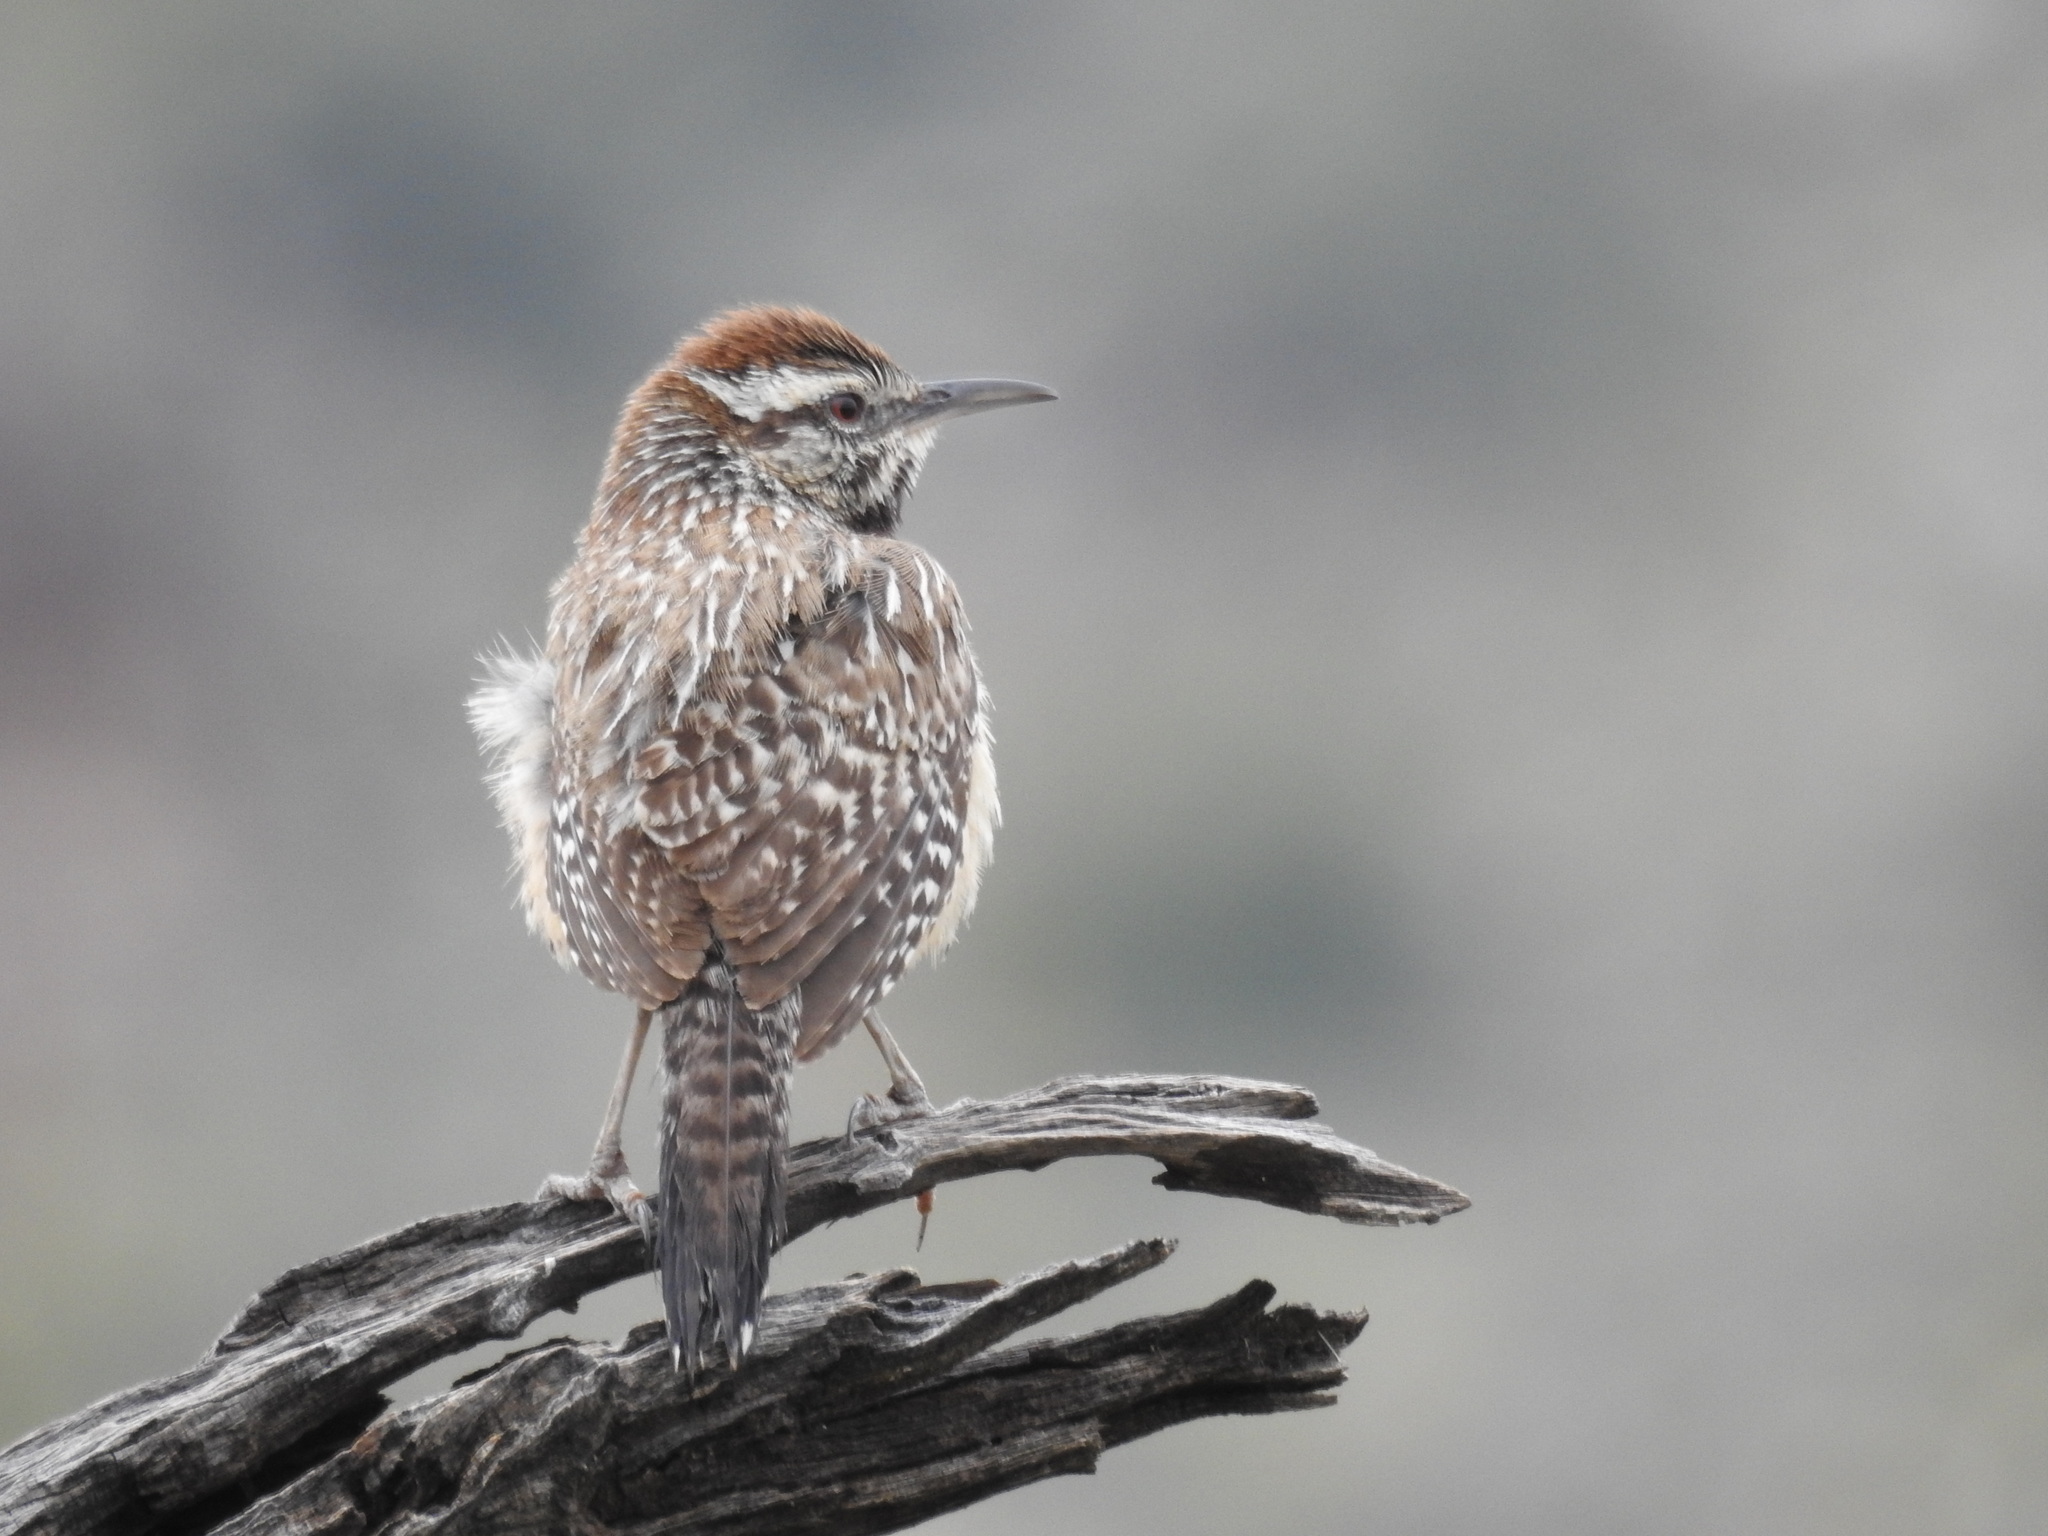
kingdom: Animalia
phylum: Chordata
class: Aves
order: Passeriformes
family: Troglodytidae
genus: Campylorhynchus
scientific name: Campylorhynchus brunneicapillus
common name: Cactus wren
